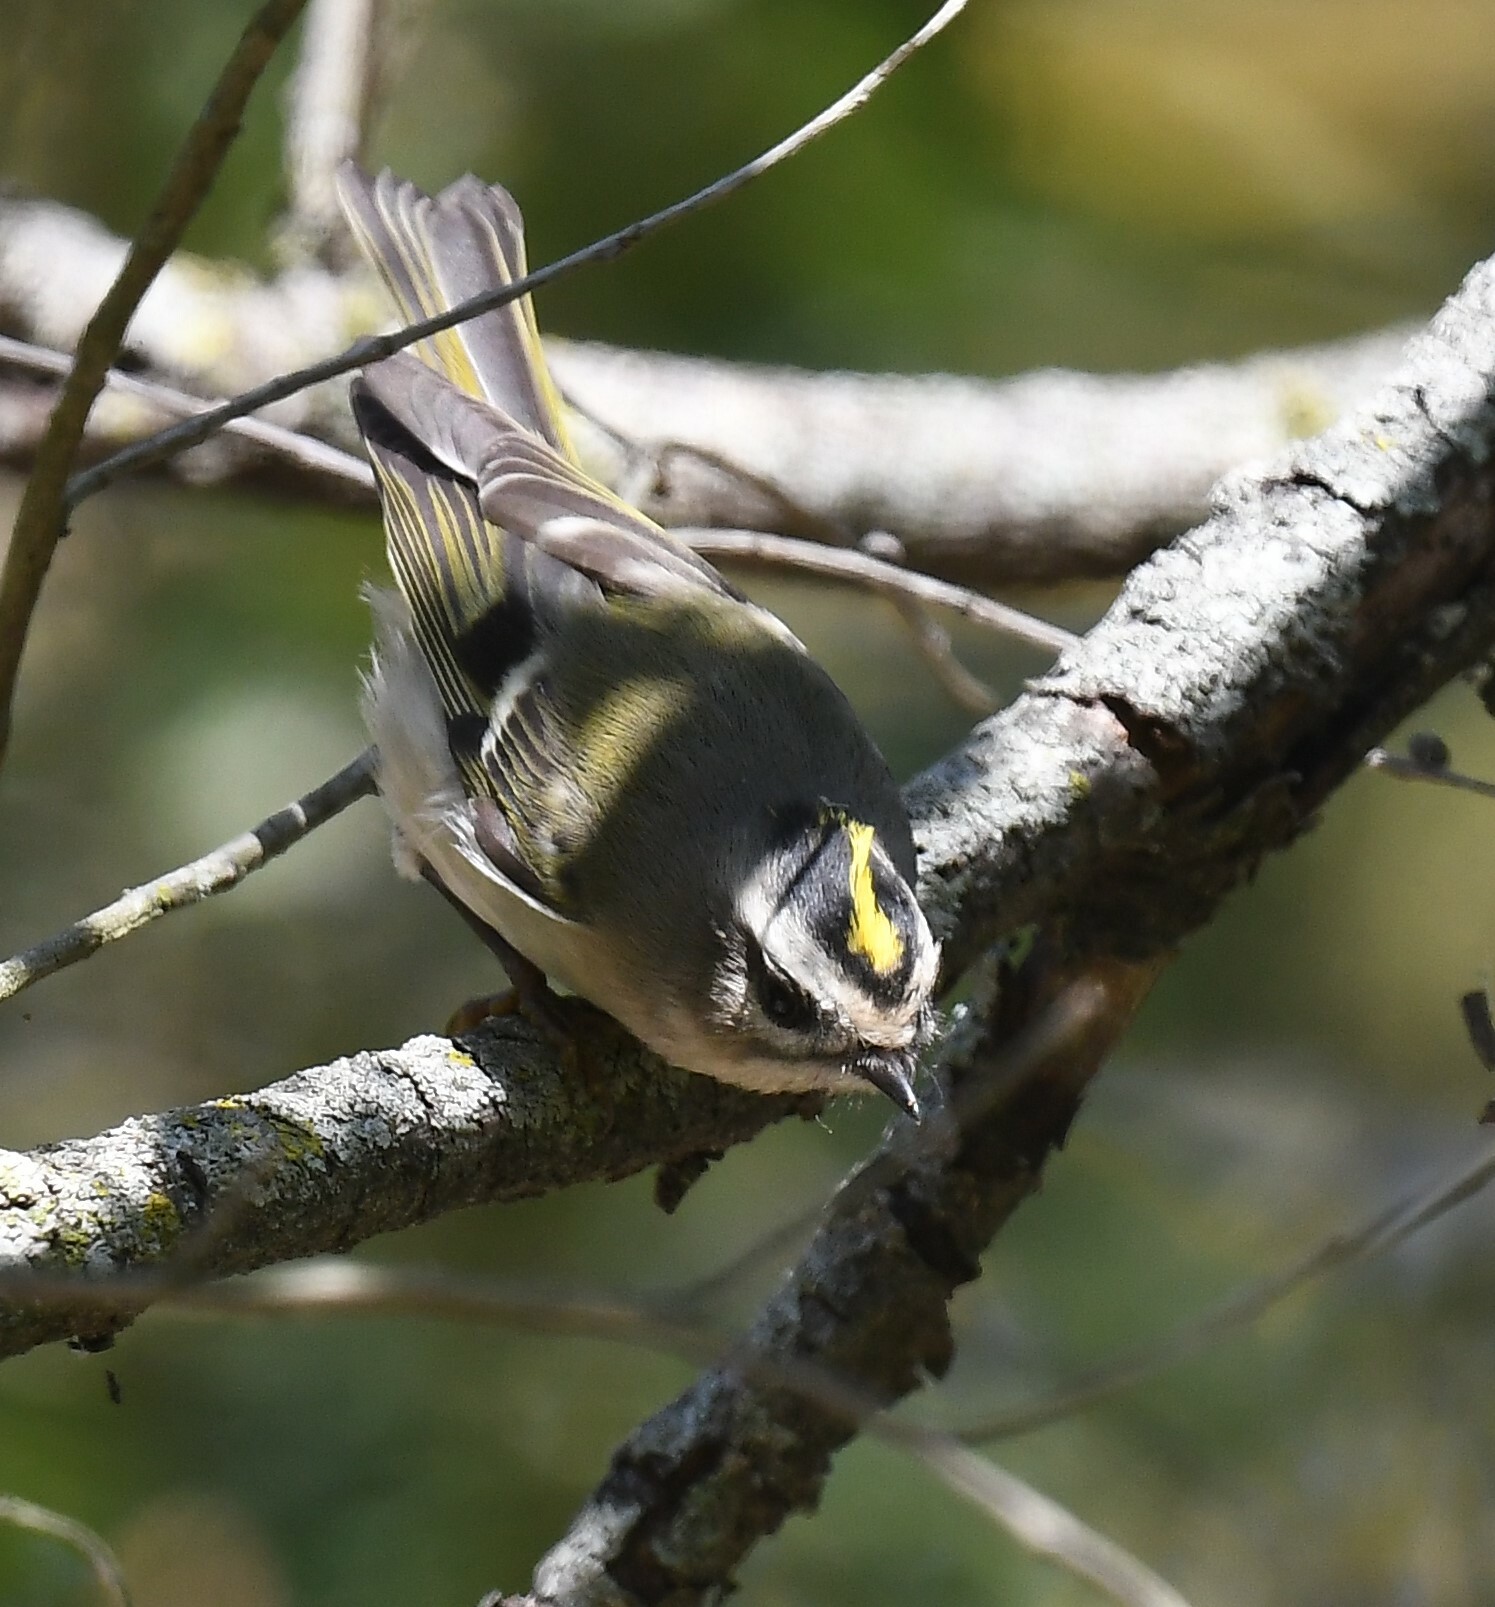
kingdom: Animalia
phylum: Chordata
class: Aves
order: Passeriformes
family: Regulidae
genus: Regulus
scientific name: Regulus satrapa
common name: Golden-crowned kinglet
